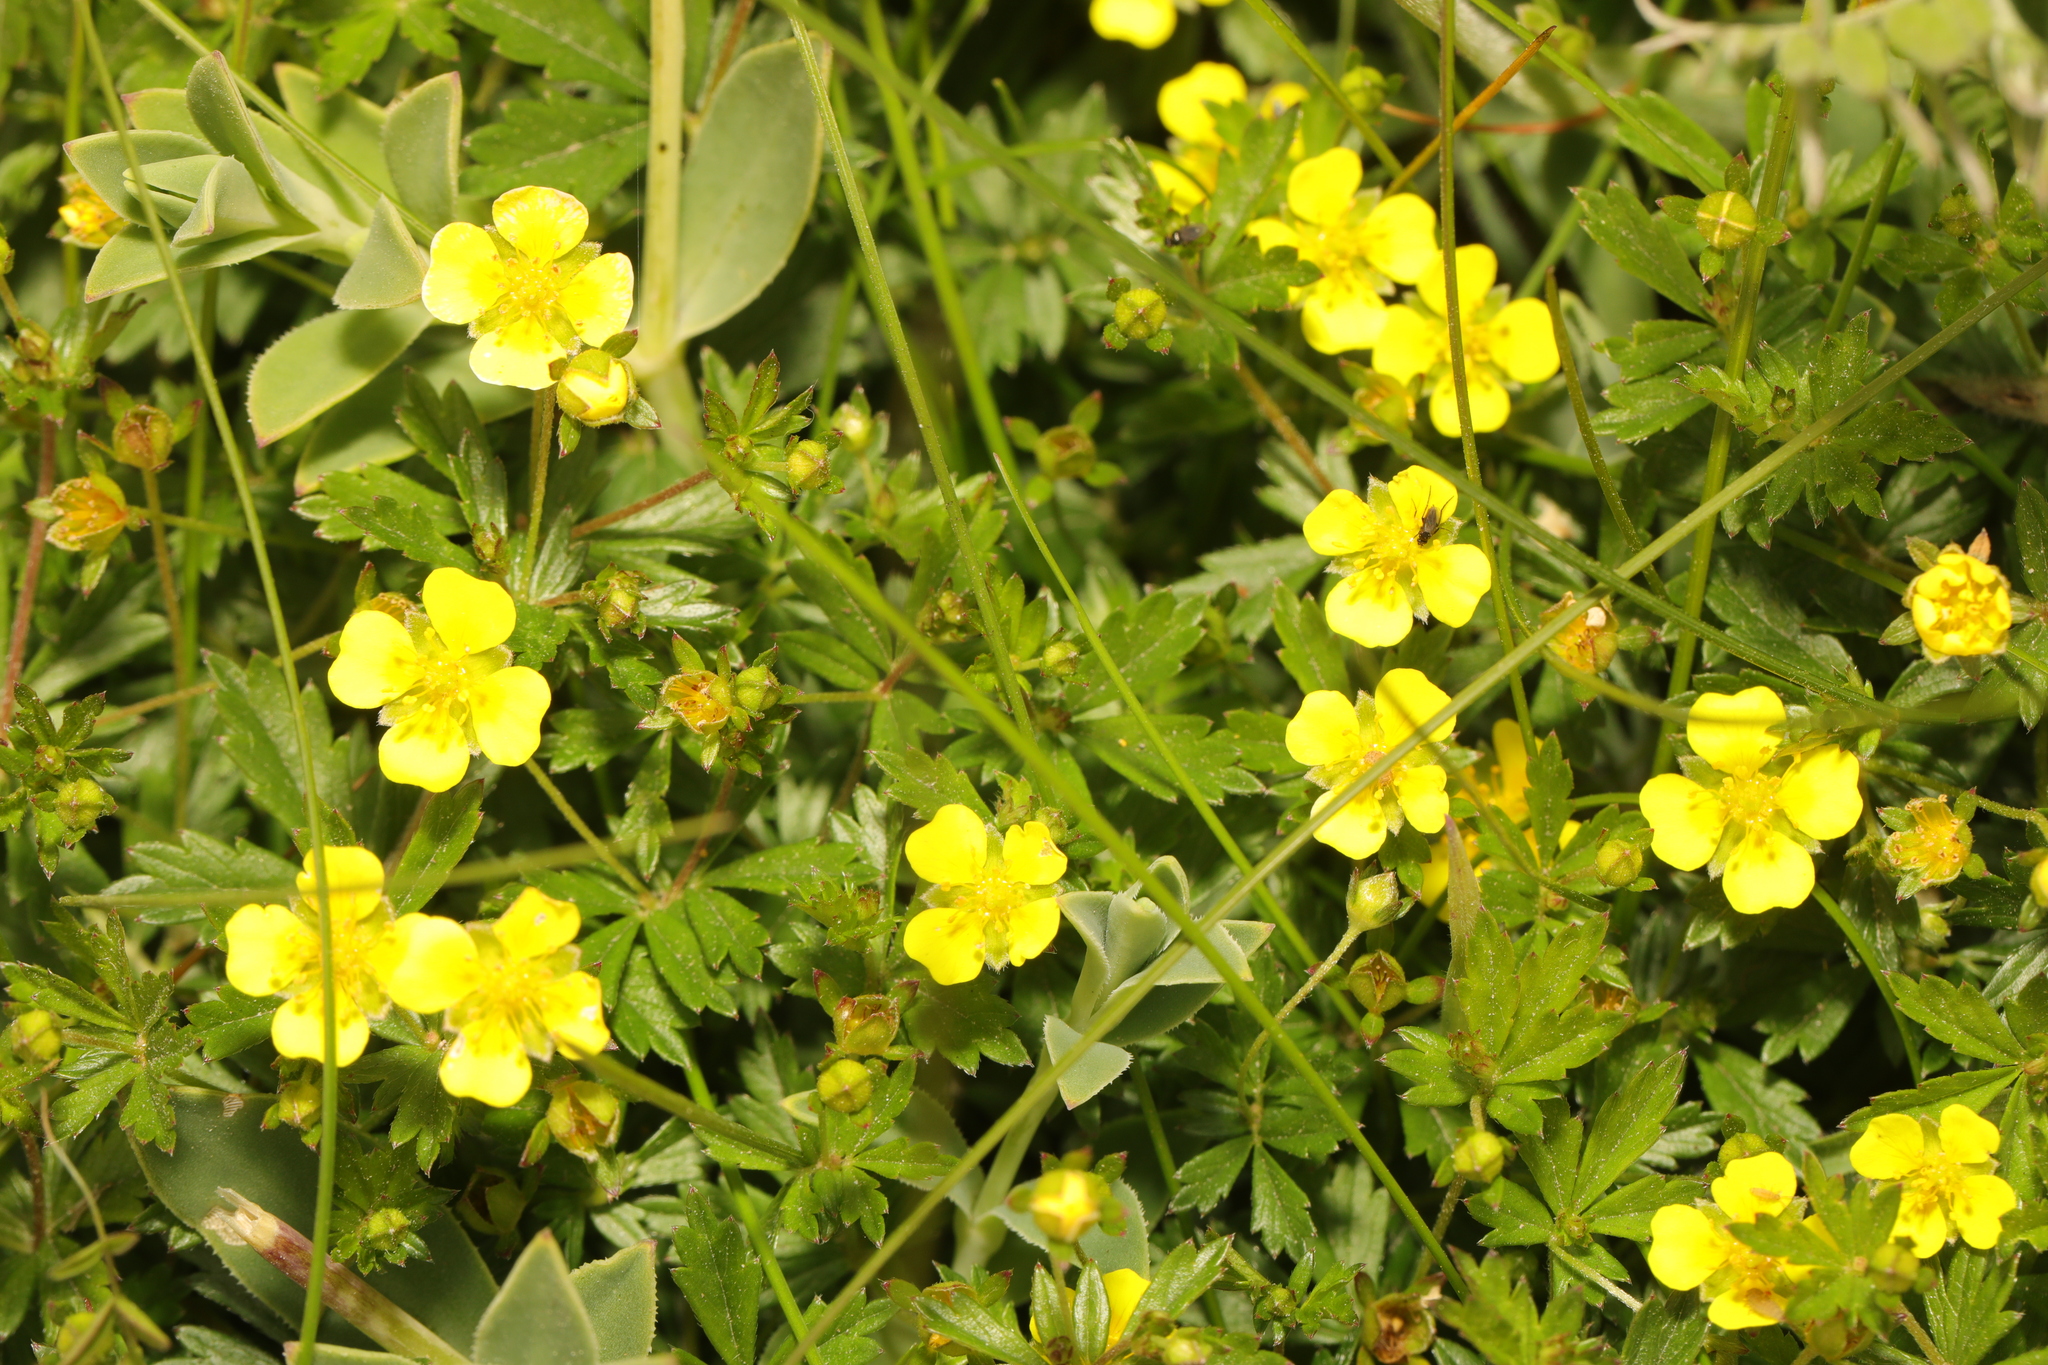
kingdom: Plantae
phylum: Tracheophyta
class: Magnoliopsida
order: Rosales
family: Rosaceae
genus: Potentilla
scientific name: Potentilla erecta
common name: Tormentil
